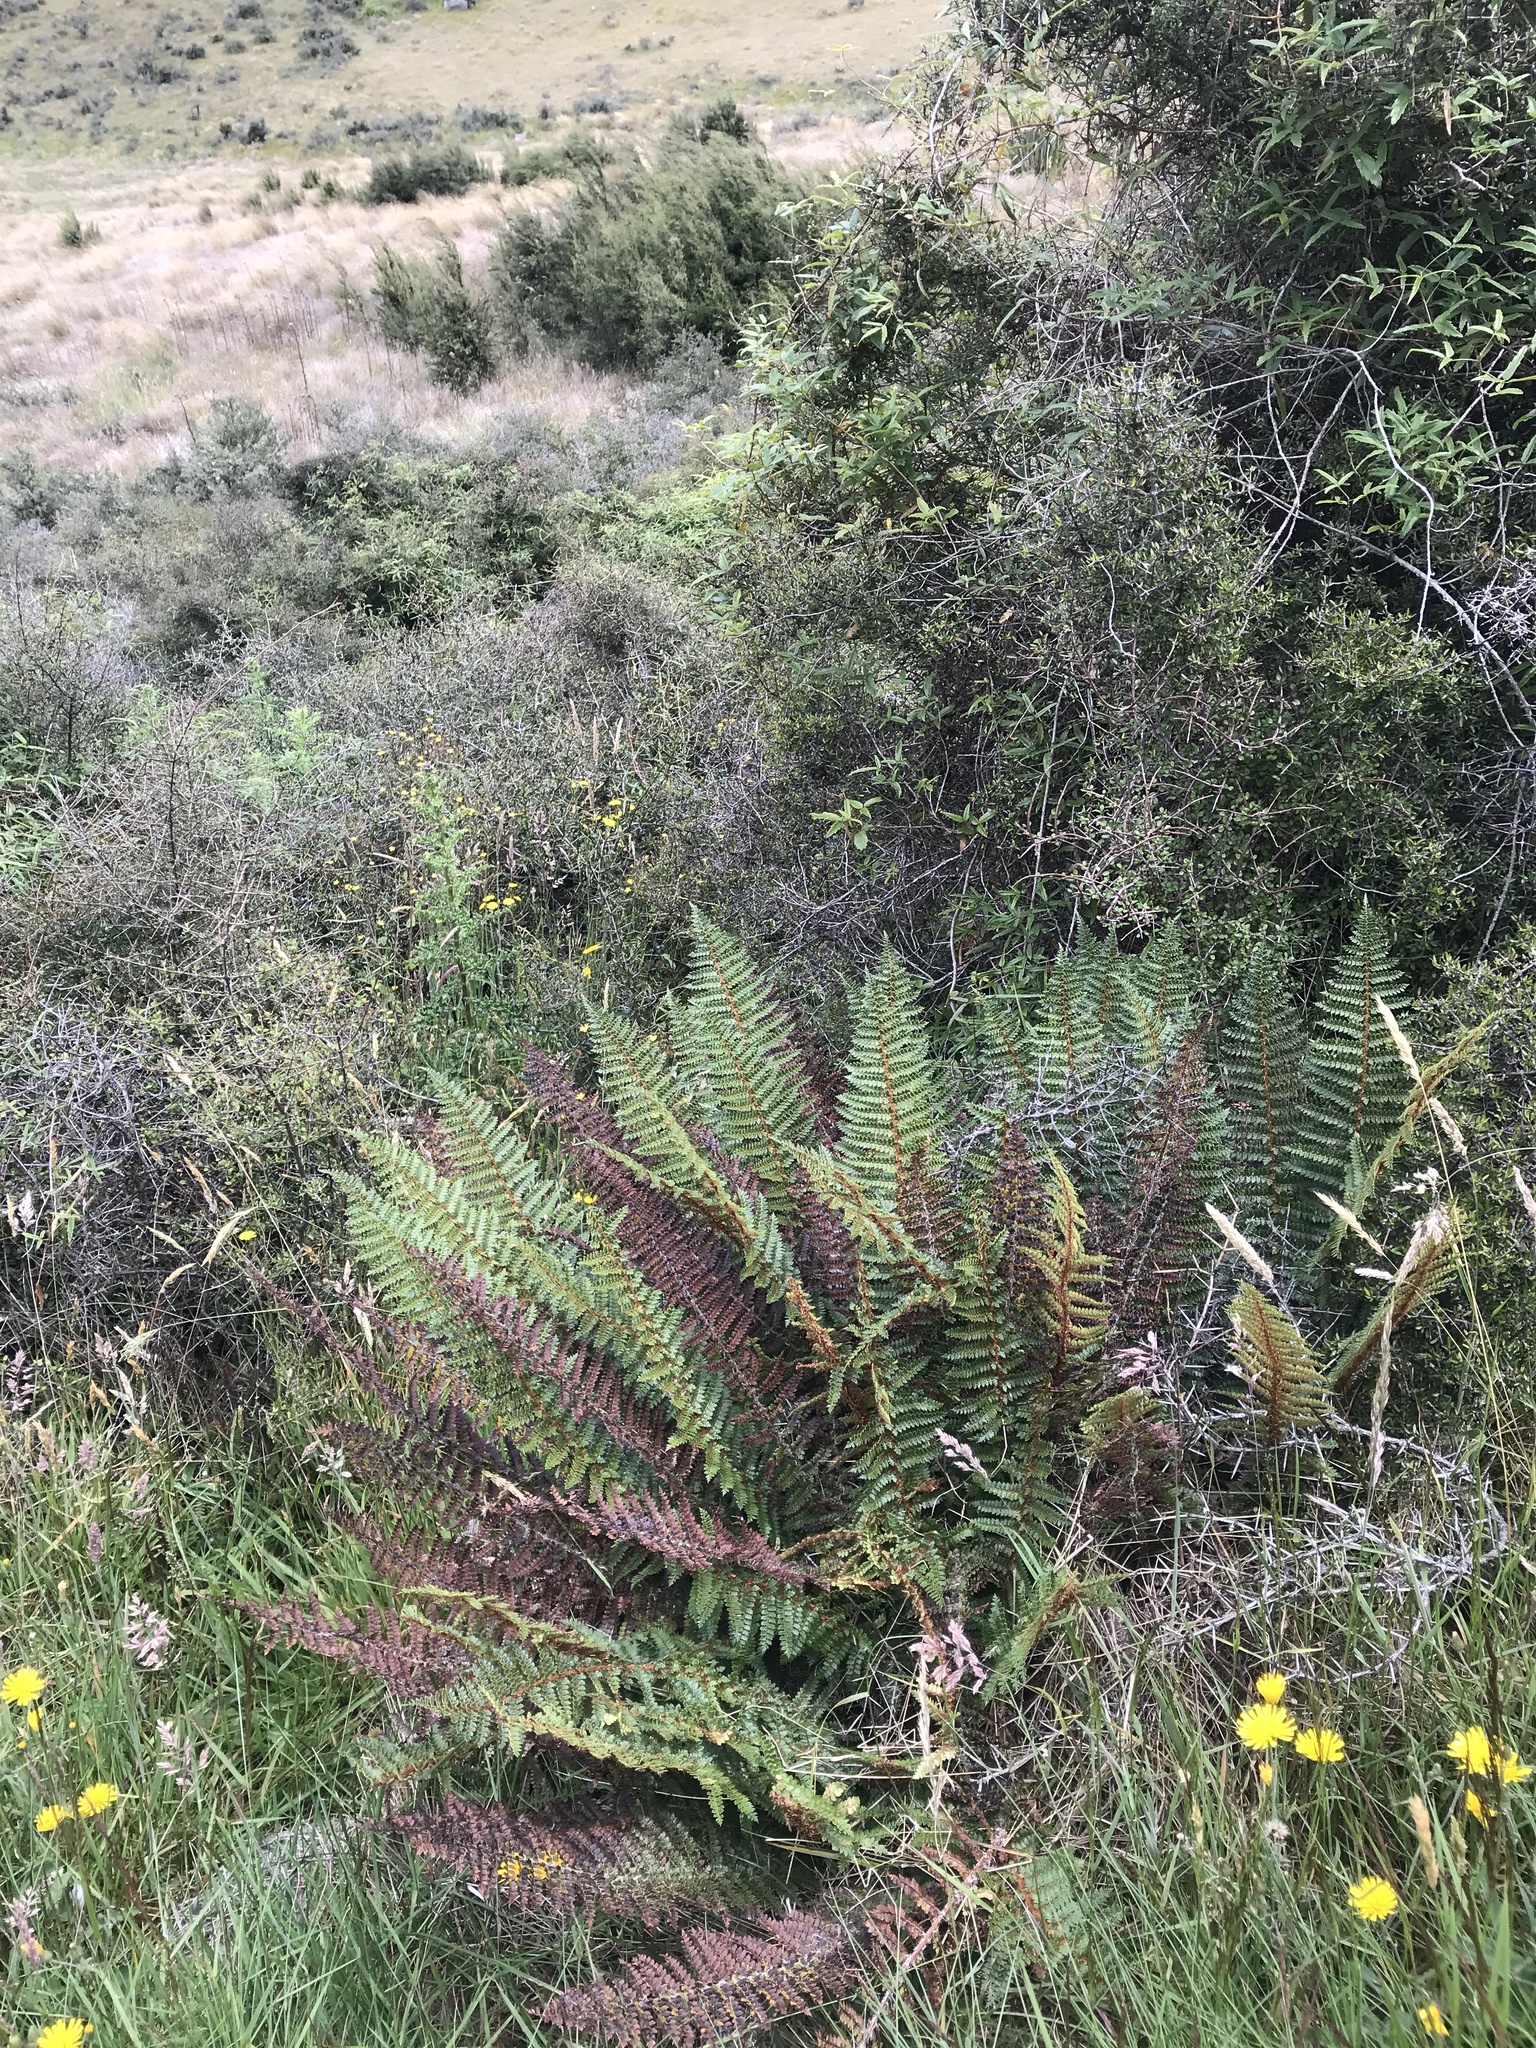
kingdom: Plantae
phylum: Tracheophyta
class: Polypodiopsida
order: Polypodiales
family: Dryopteridaceae
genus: Polystichum
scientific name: Polystichum vestitum
